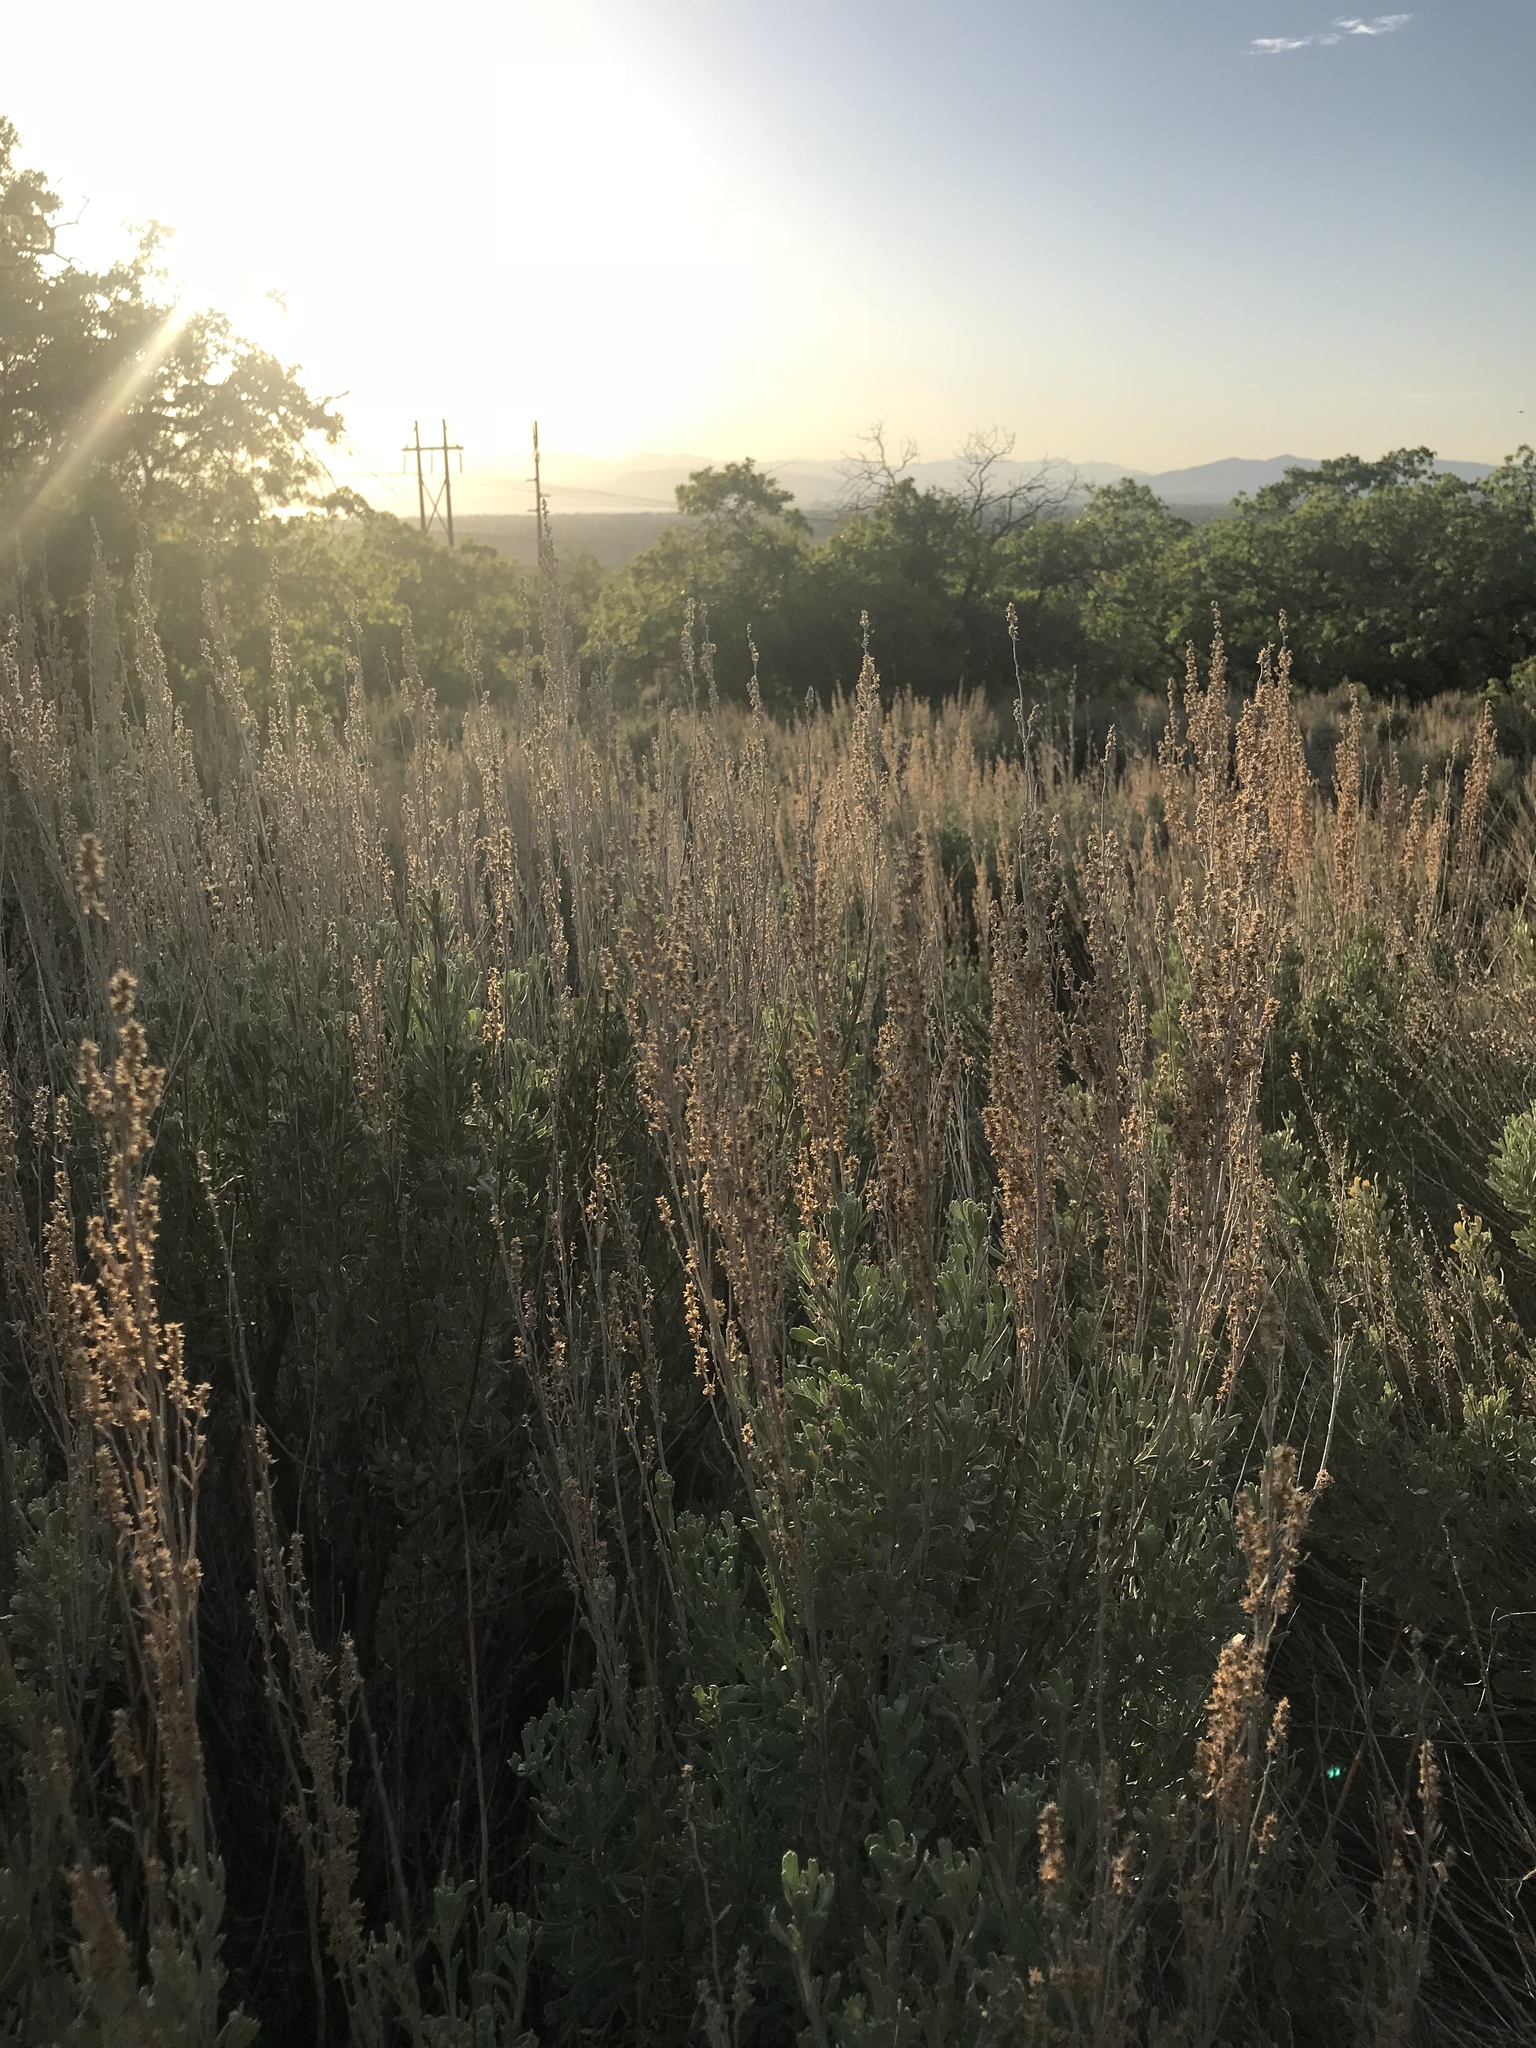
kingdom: Plantae
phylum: Tracheophyta
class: Magnoliopsida
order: Asterales
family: Asteraceae
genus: Artemisia
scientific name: Artemisia tridentata
